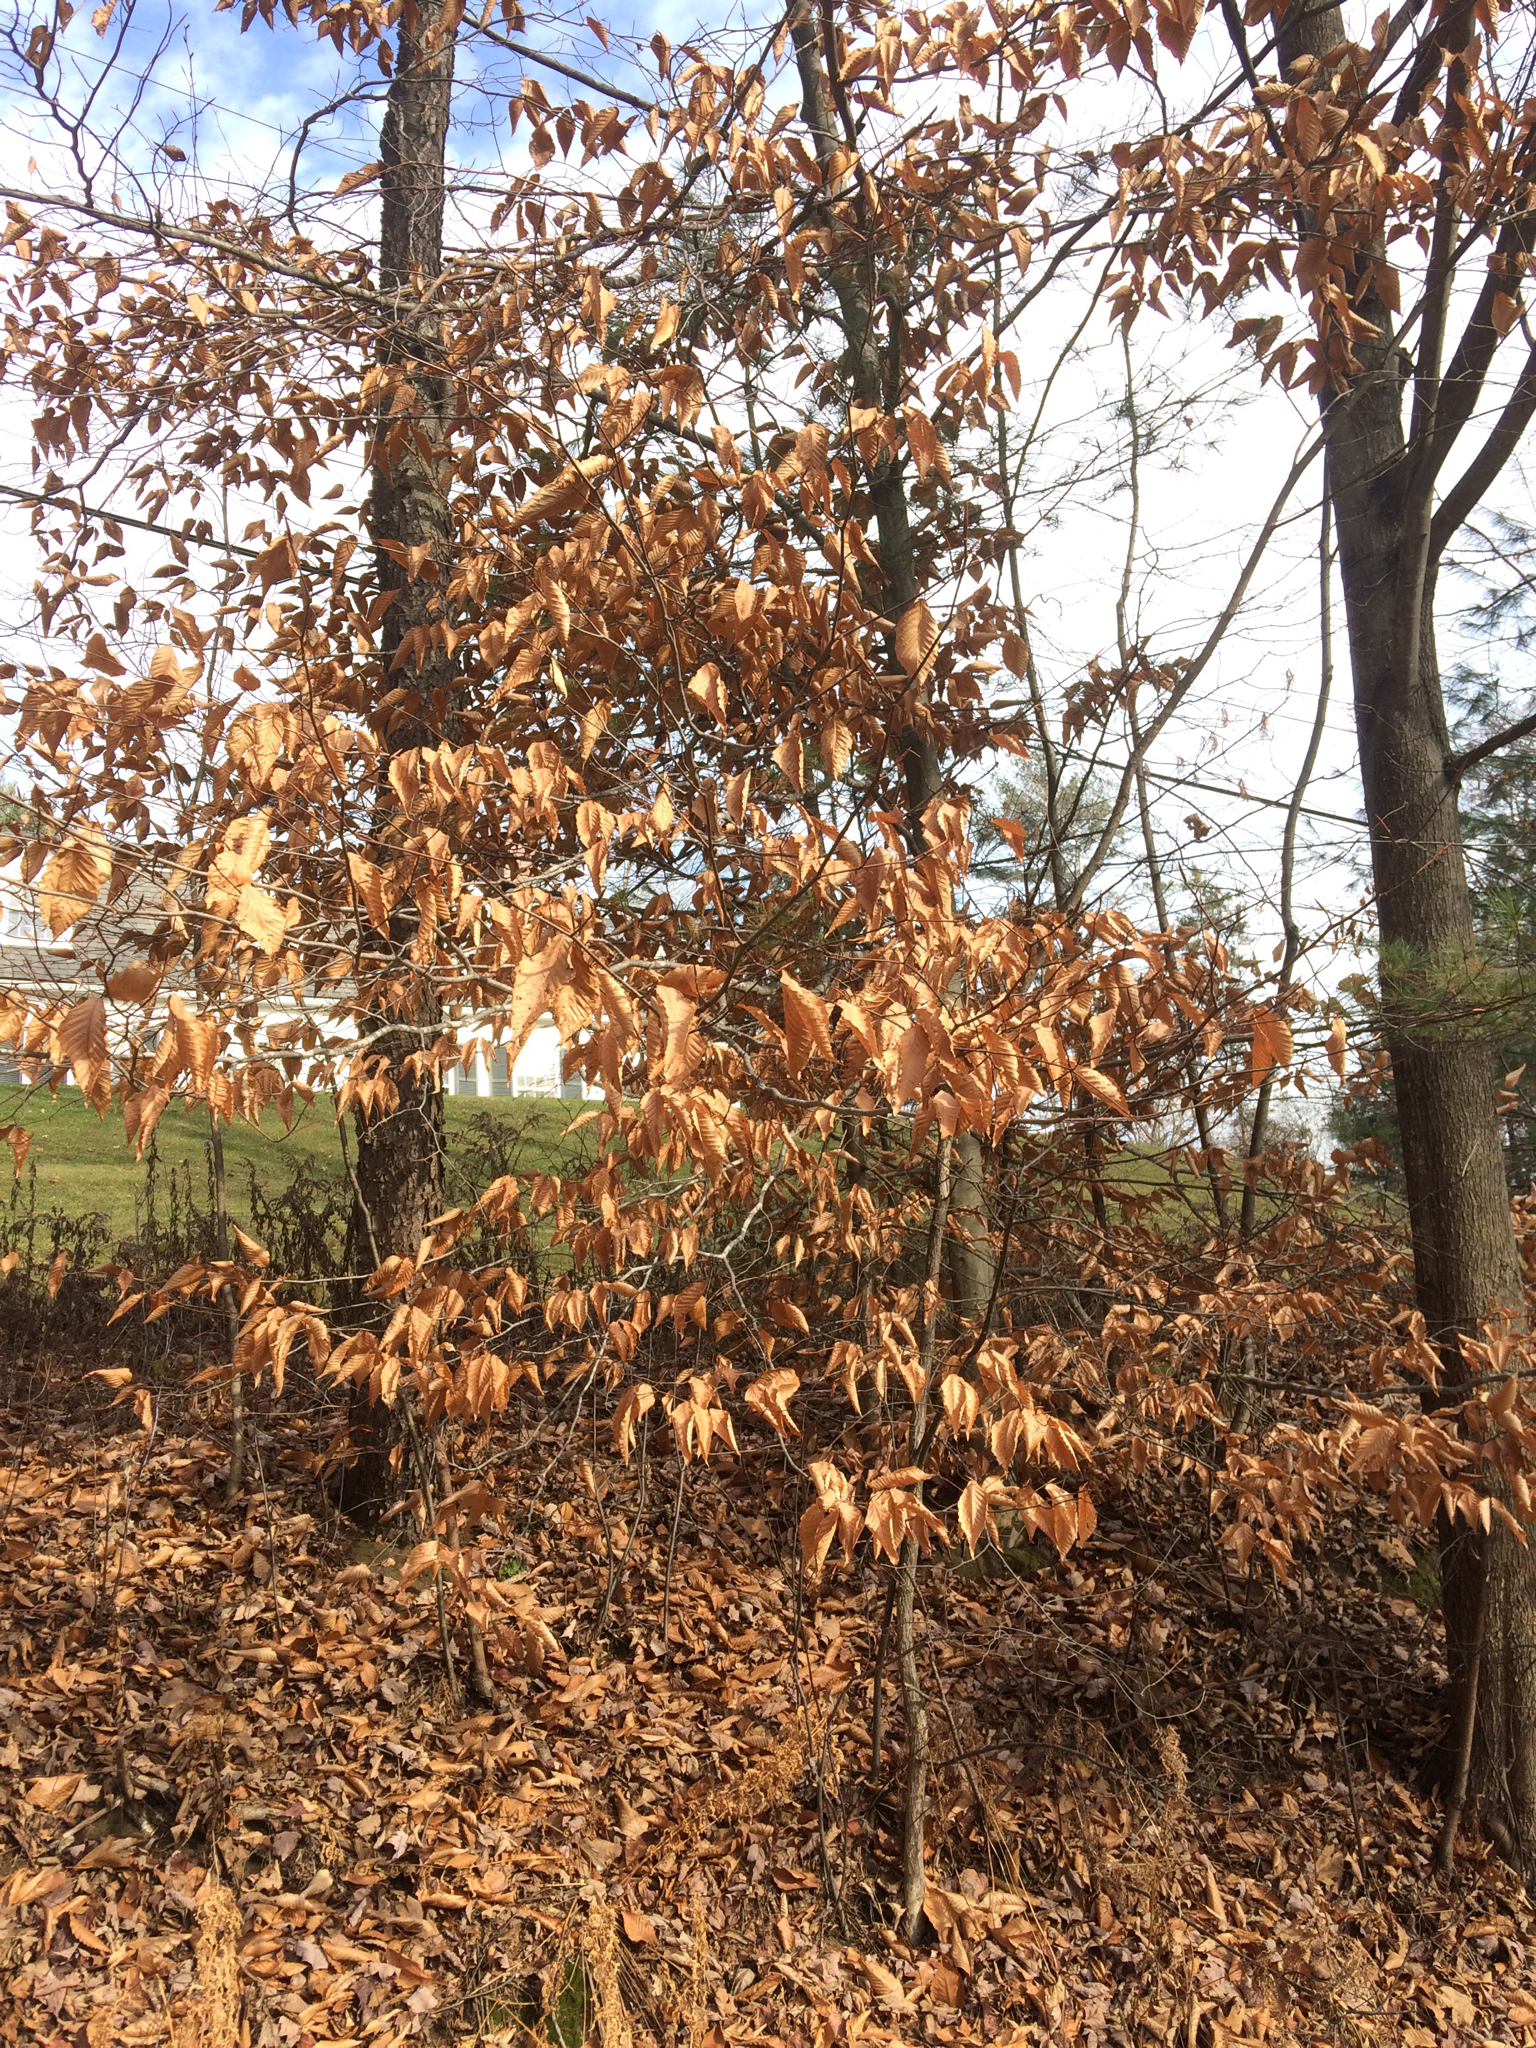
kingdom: Plantae
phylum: Tracheophyta
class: Magnoliopsida
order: Fagales
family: Fagaceae
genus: Fagus
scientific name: Fagus grandifolia
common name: American beech
